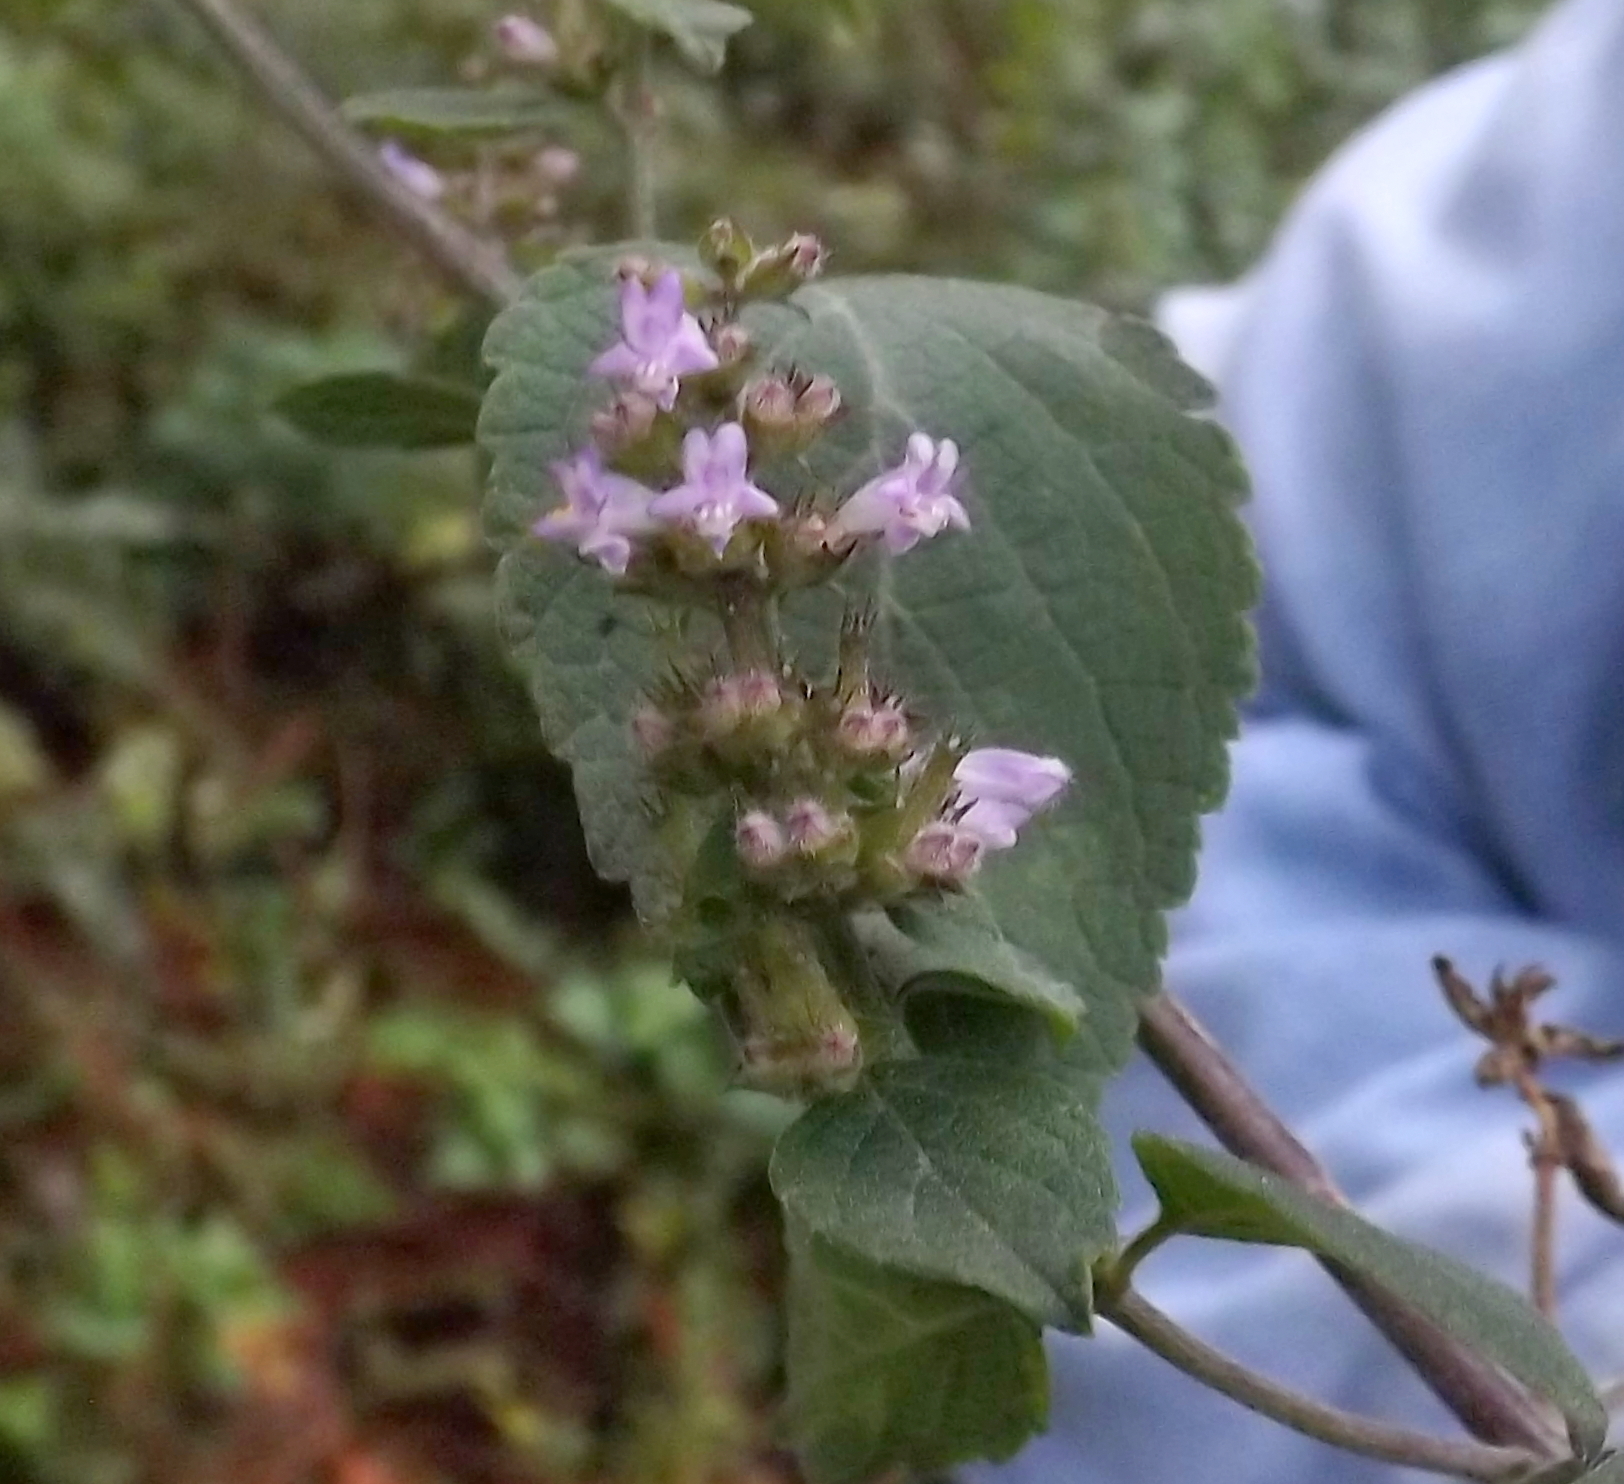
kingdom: Plantae
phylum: Tracheophyta
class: Magnoliopsida
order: Lamiales
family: Lamiaceae
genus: Cantinoa
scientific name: Cantinoa mutabilis
